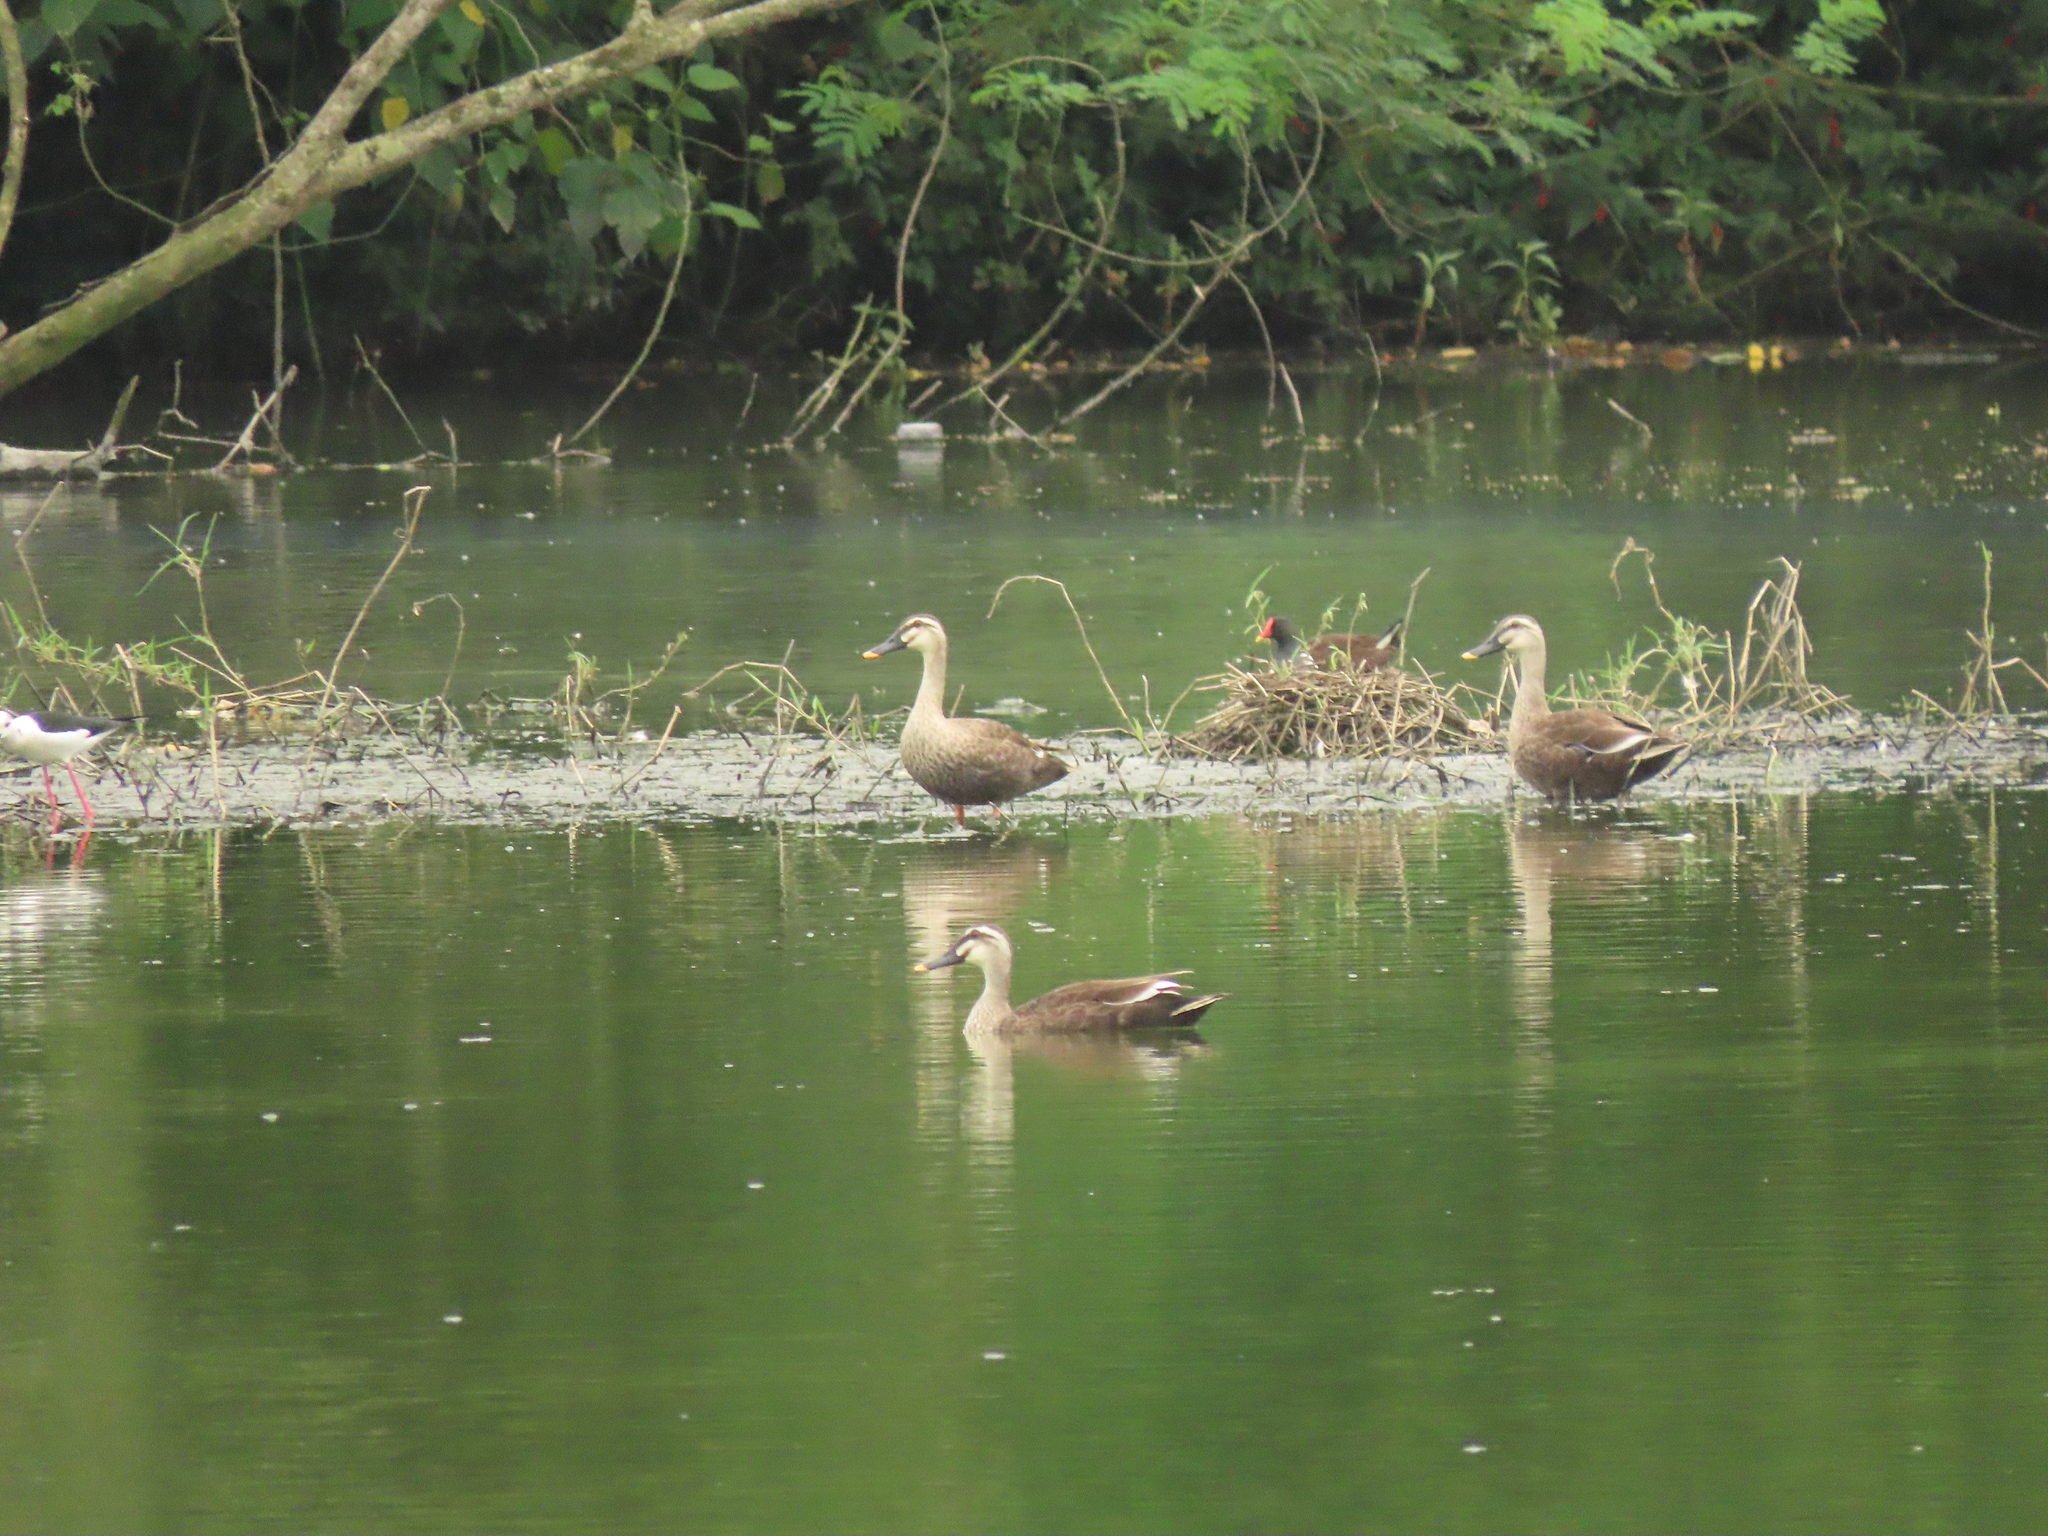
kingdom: Animalia
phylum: Chordata
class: Aves
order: Anseriformes
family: Anatidae
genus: Anas
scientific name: Anas zonorhyncha
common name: Eastern spot-billed duck
